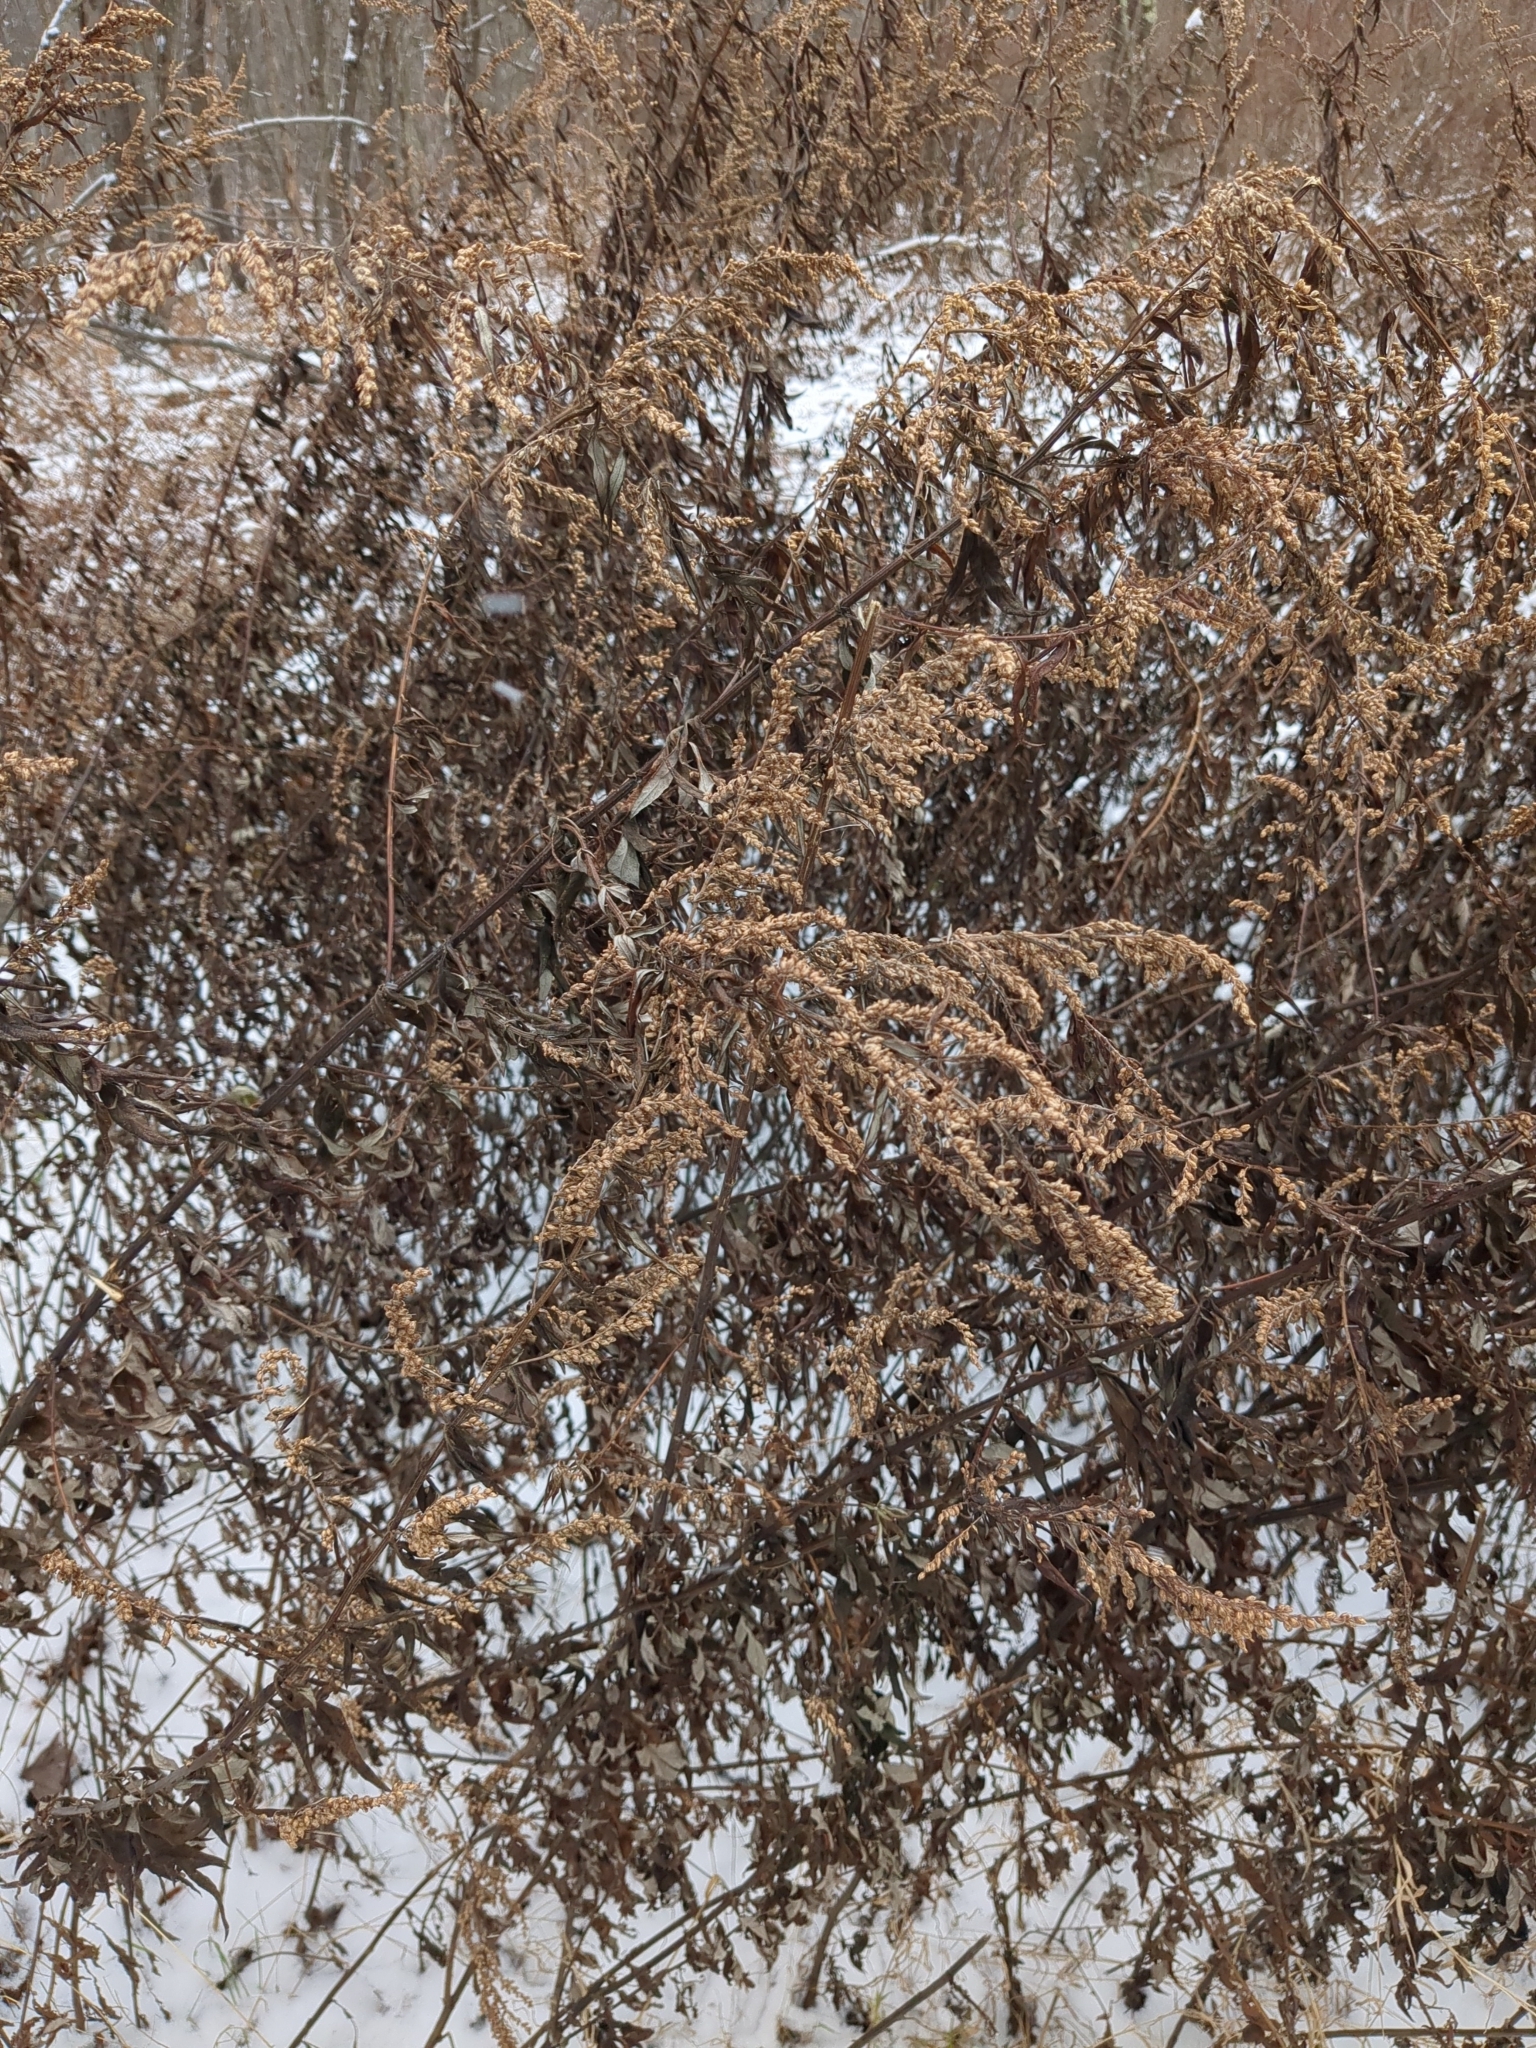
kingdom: Plantae
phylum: Tracheophyta
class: Magnoliopsida
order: Asterales
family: Asteraceae
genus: Artemisia
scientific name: Artemisia vulgaris
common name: Mugwort
